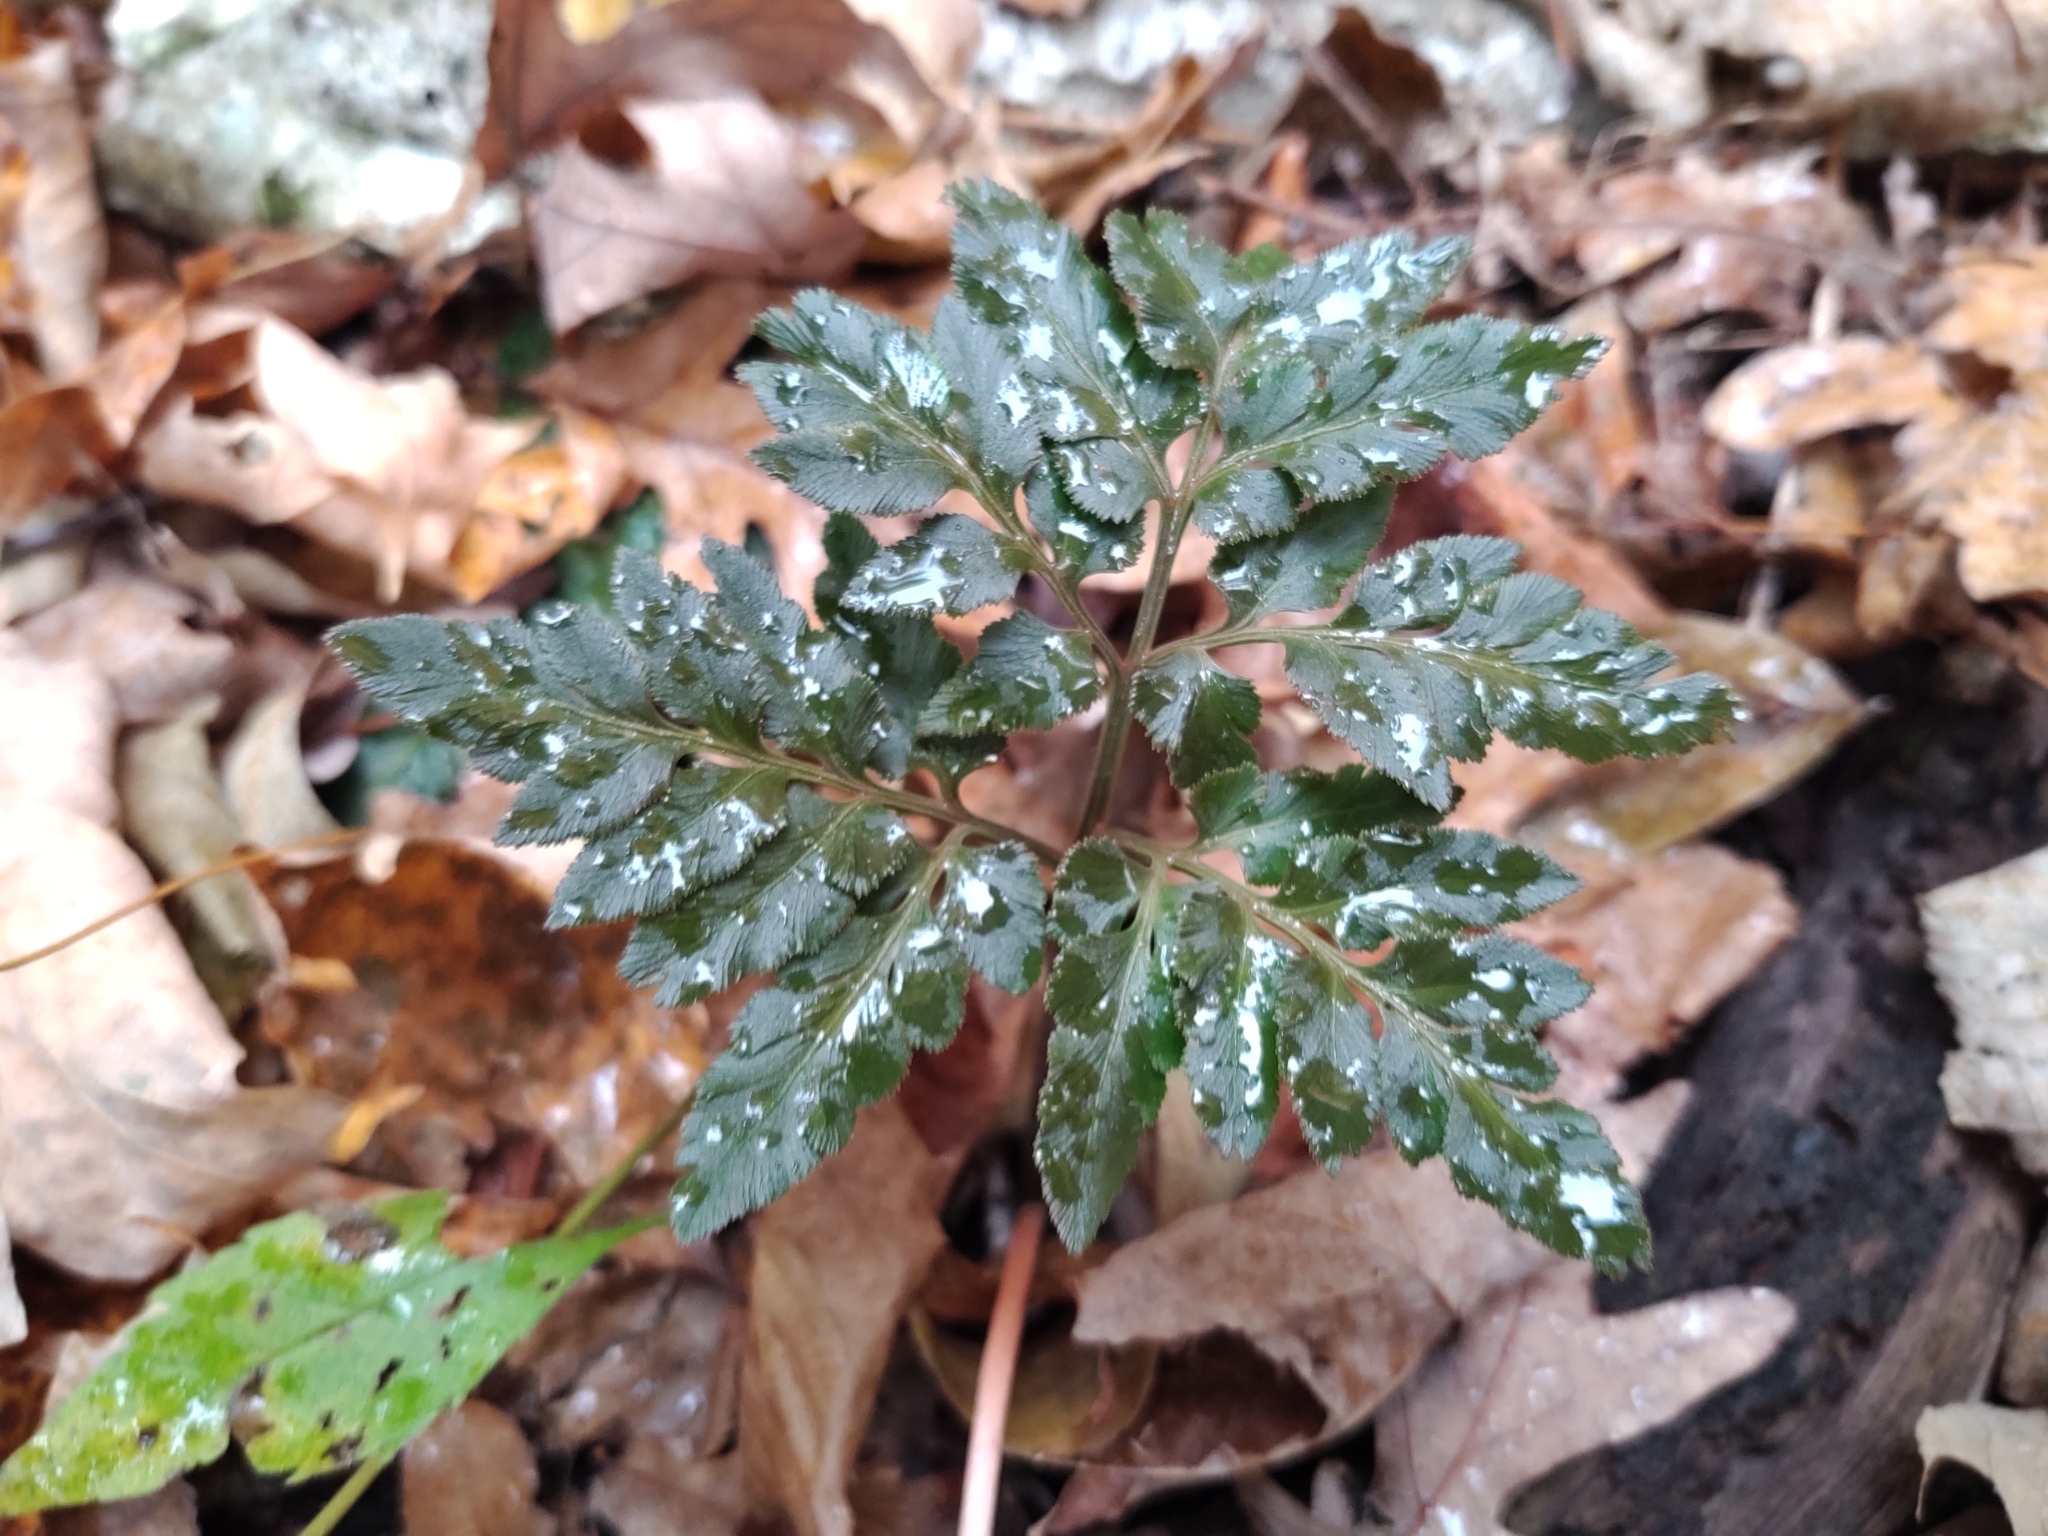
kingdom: Plantae
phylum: Tracheophyta
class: Polypodiopsida
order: Ophioglossales
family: Ophioglossaceae
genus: Sceptridium
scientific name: Sceptridium dissectum
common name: Cut-leaved grapefern
